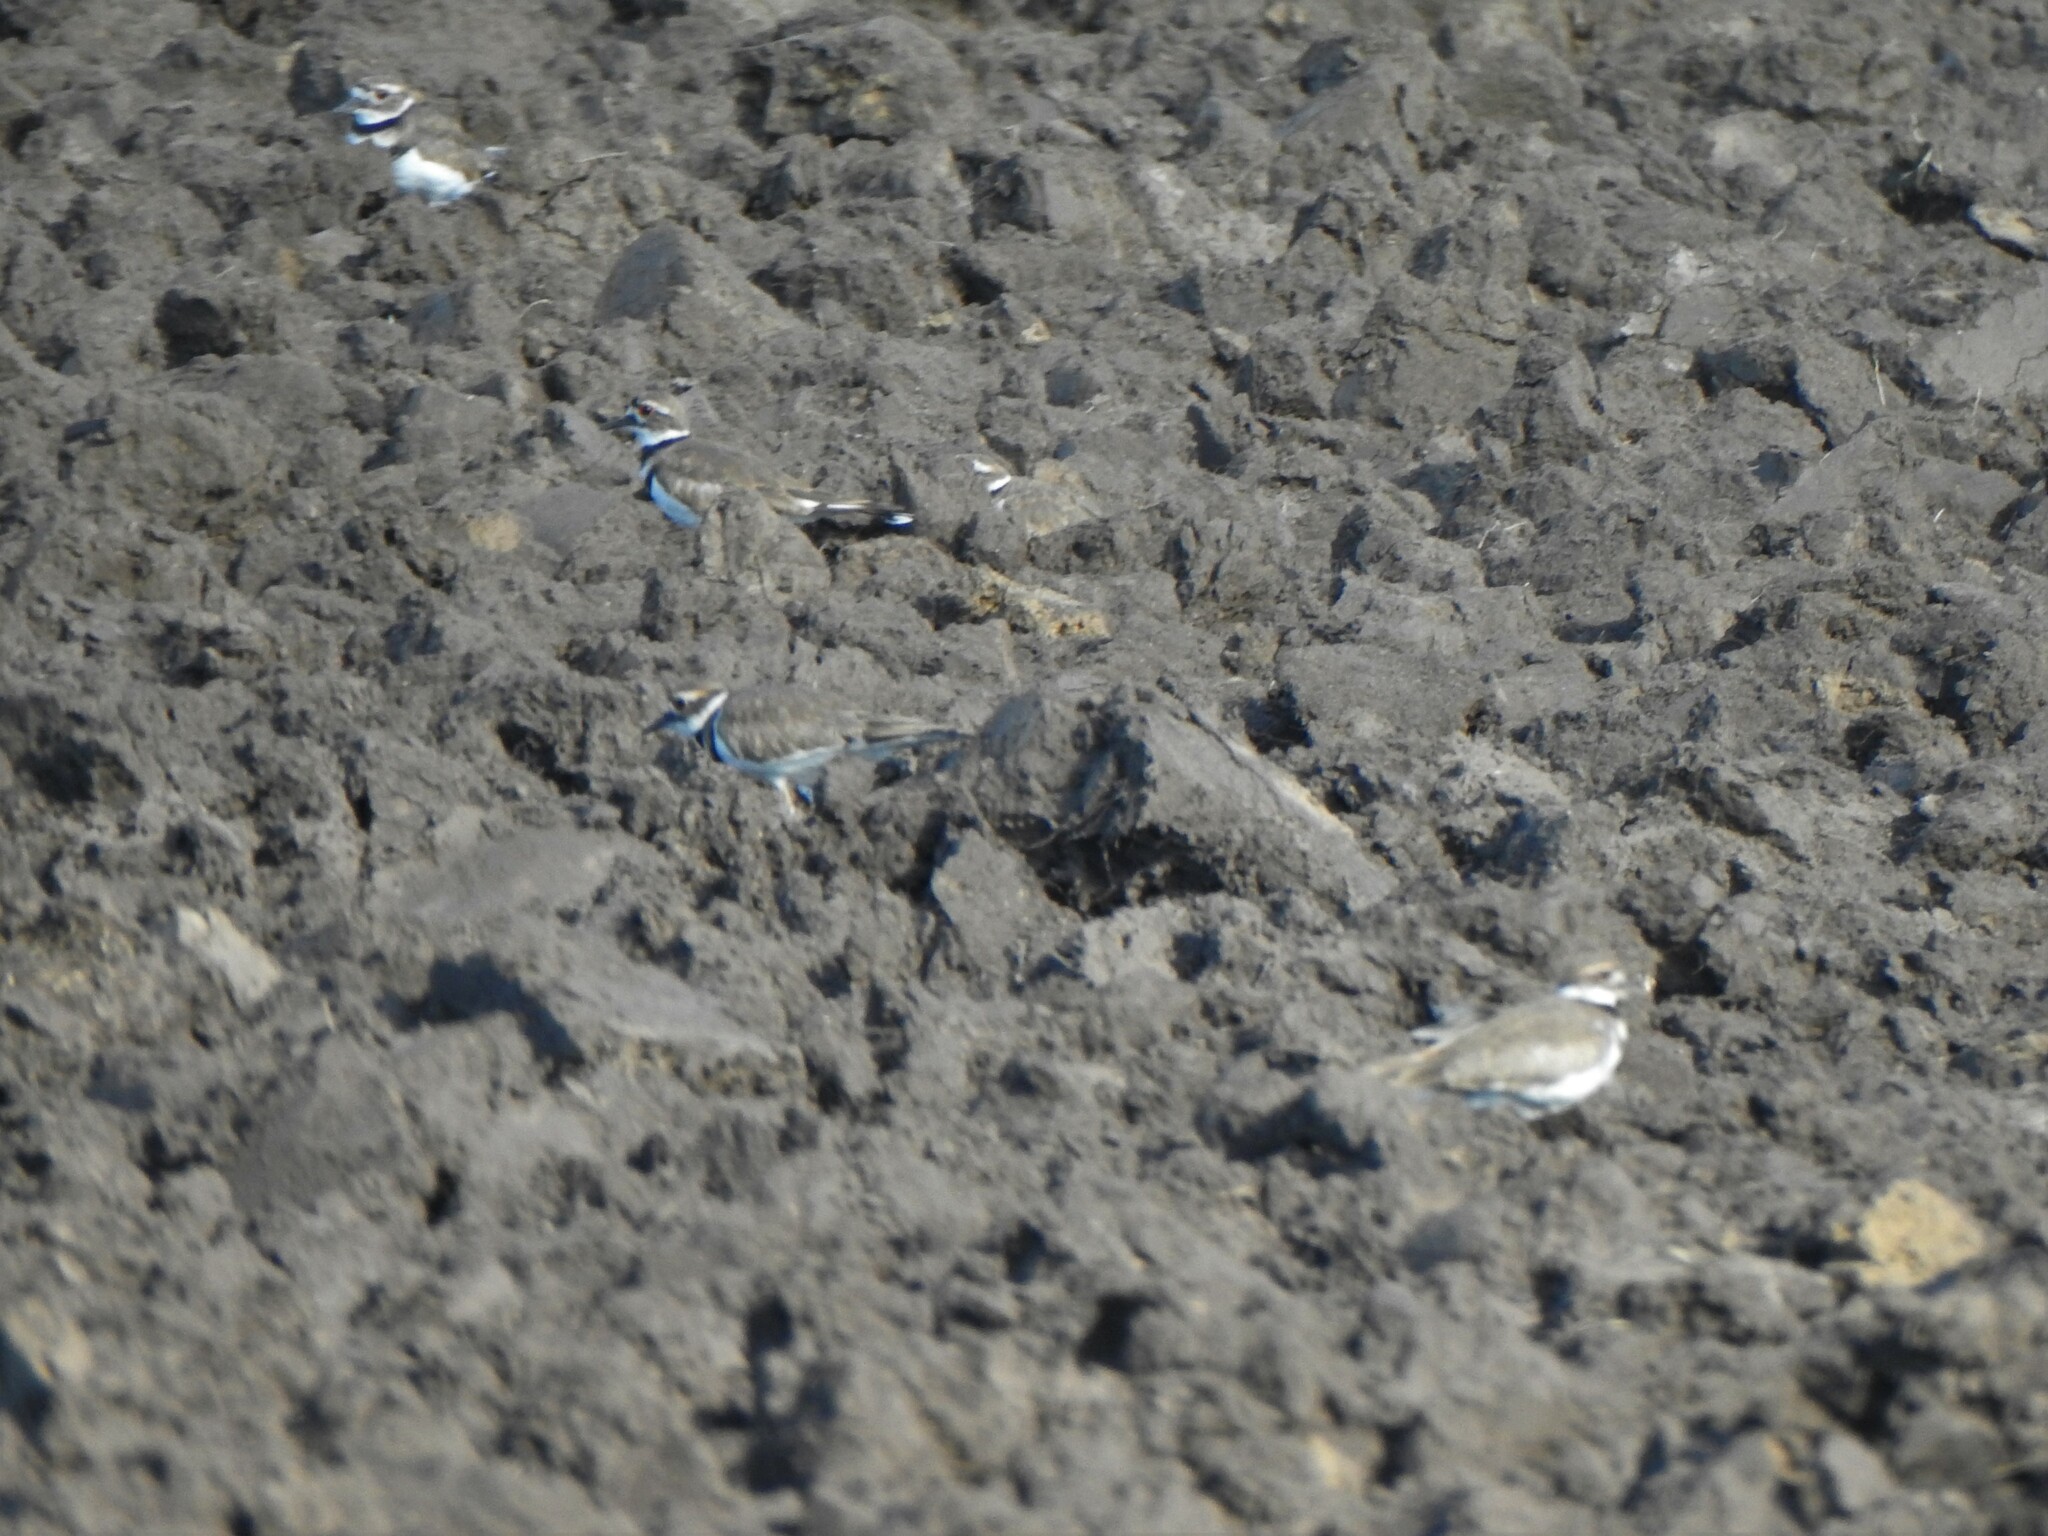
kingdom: Animalia
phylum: Chordata
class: Aves
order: Charadriiformes
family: Charadriidae
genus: Charadrius
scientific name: Charadrius vociferus
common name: Killdeer
